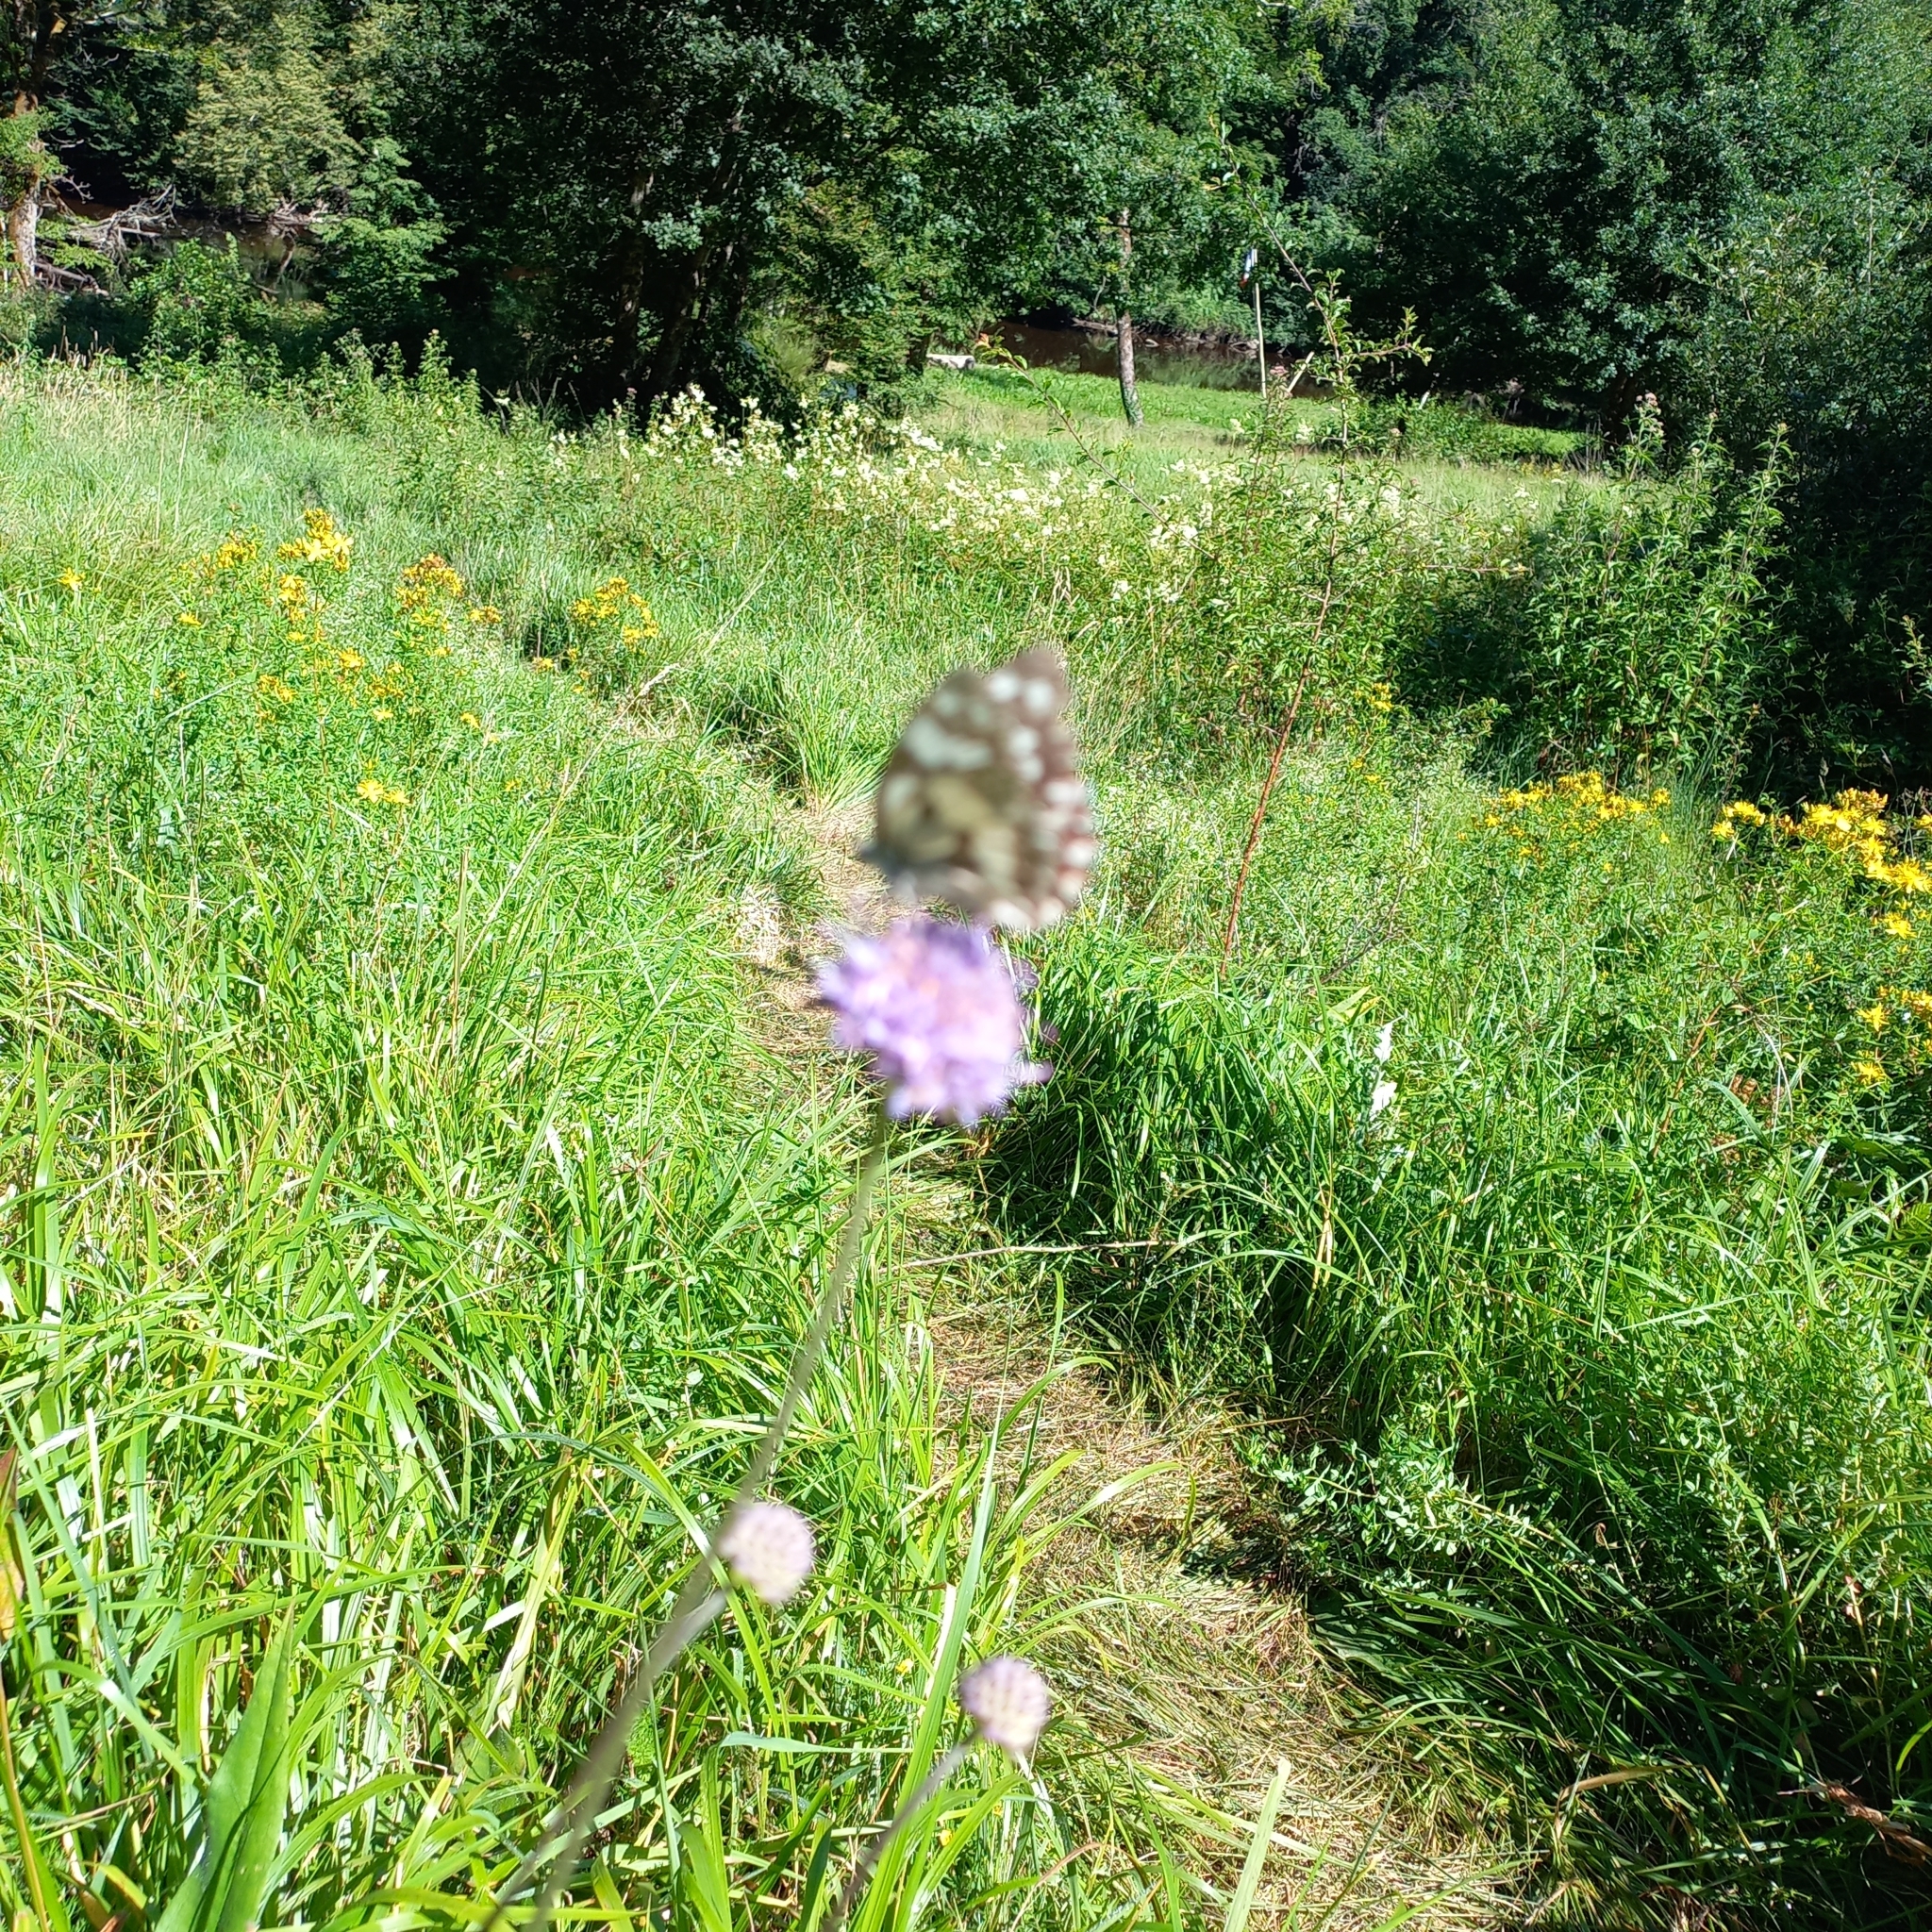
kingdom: Animalia
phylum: Arthropoda
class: Insecta
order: Lepidoptera
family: Nymphalidae
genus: Melanargia
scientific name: Melanargia galathea
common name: Marbled white
